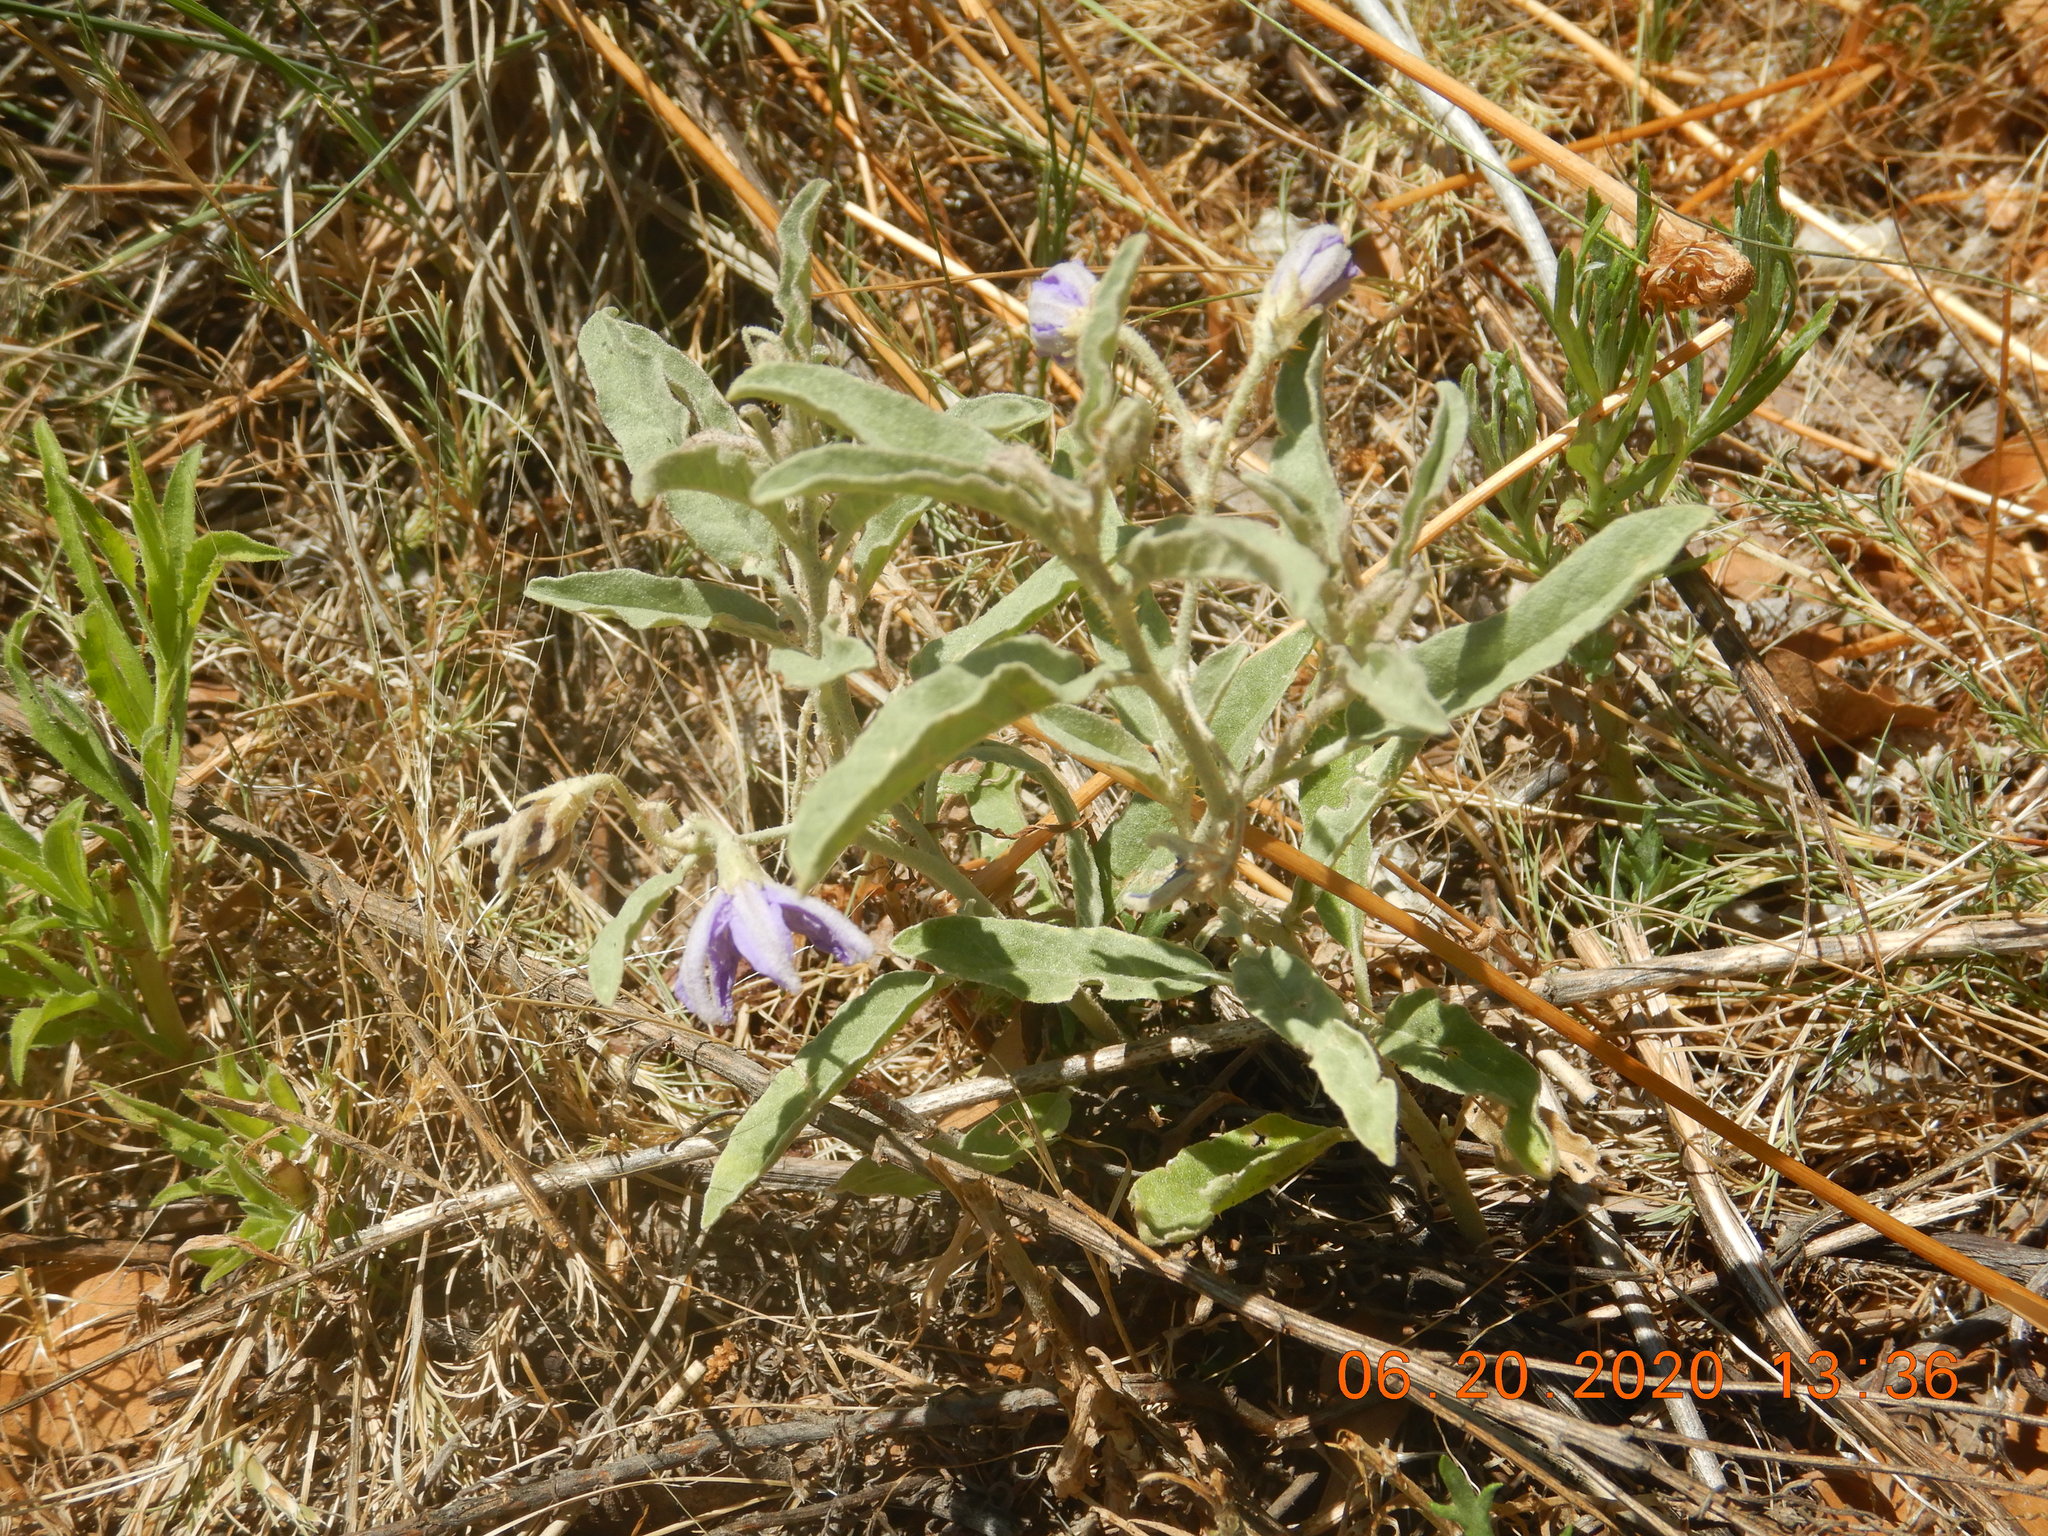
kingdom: Plantae
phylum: Tracheophyta
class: Magnoliopsida
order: Solanales
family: Solanaceae
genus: Solanum
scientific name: Solanum elaeagnifolium
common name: Silverleaf nightshade
